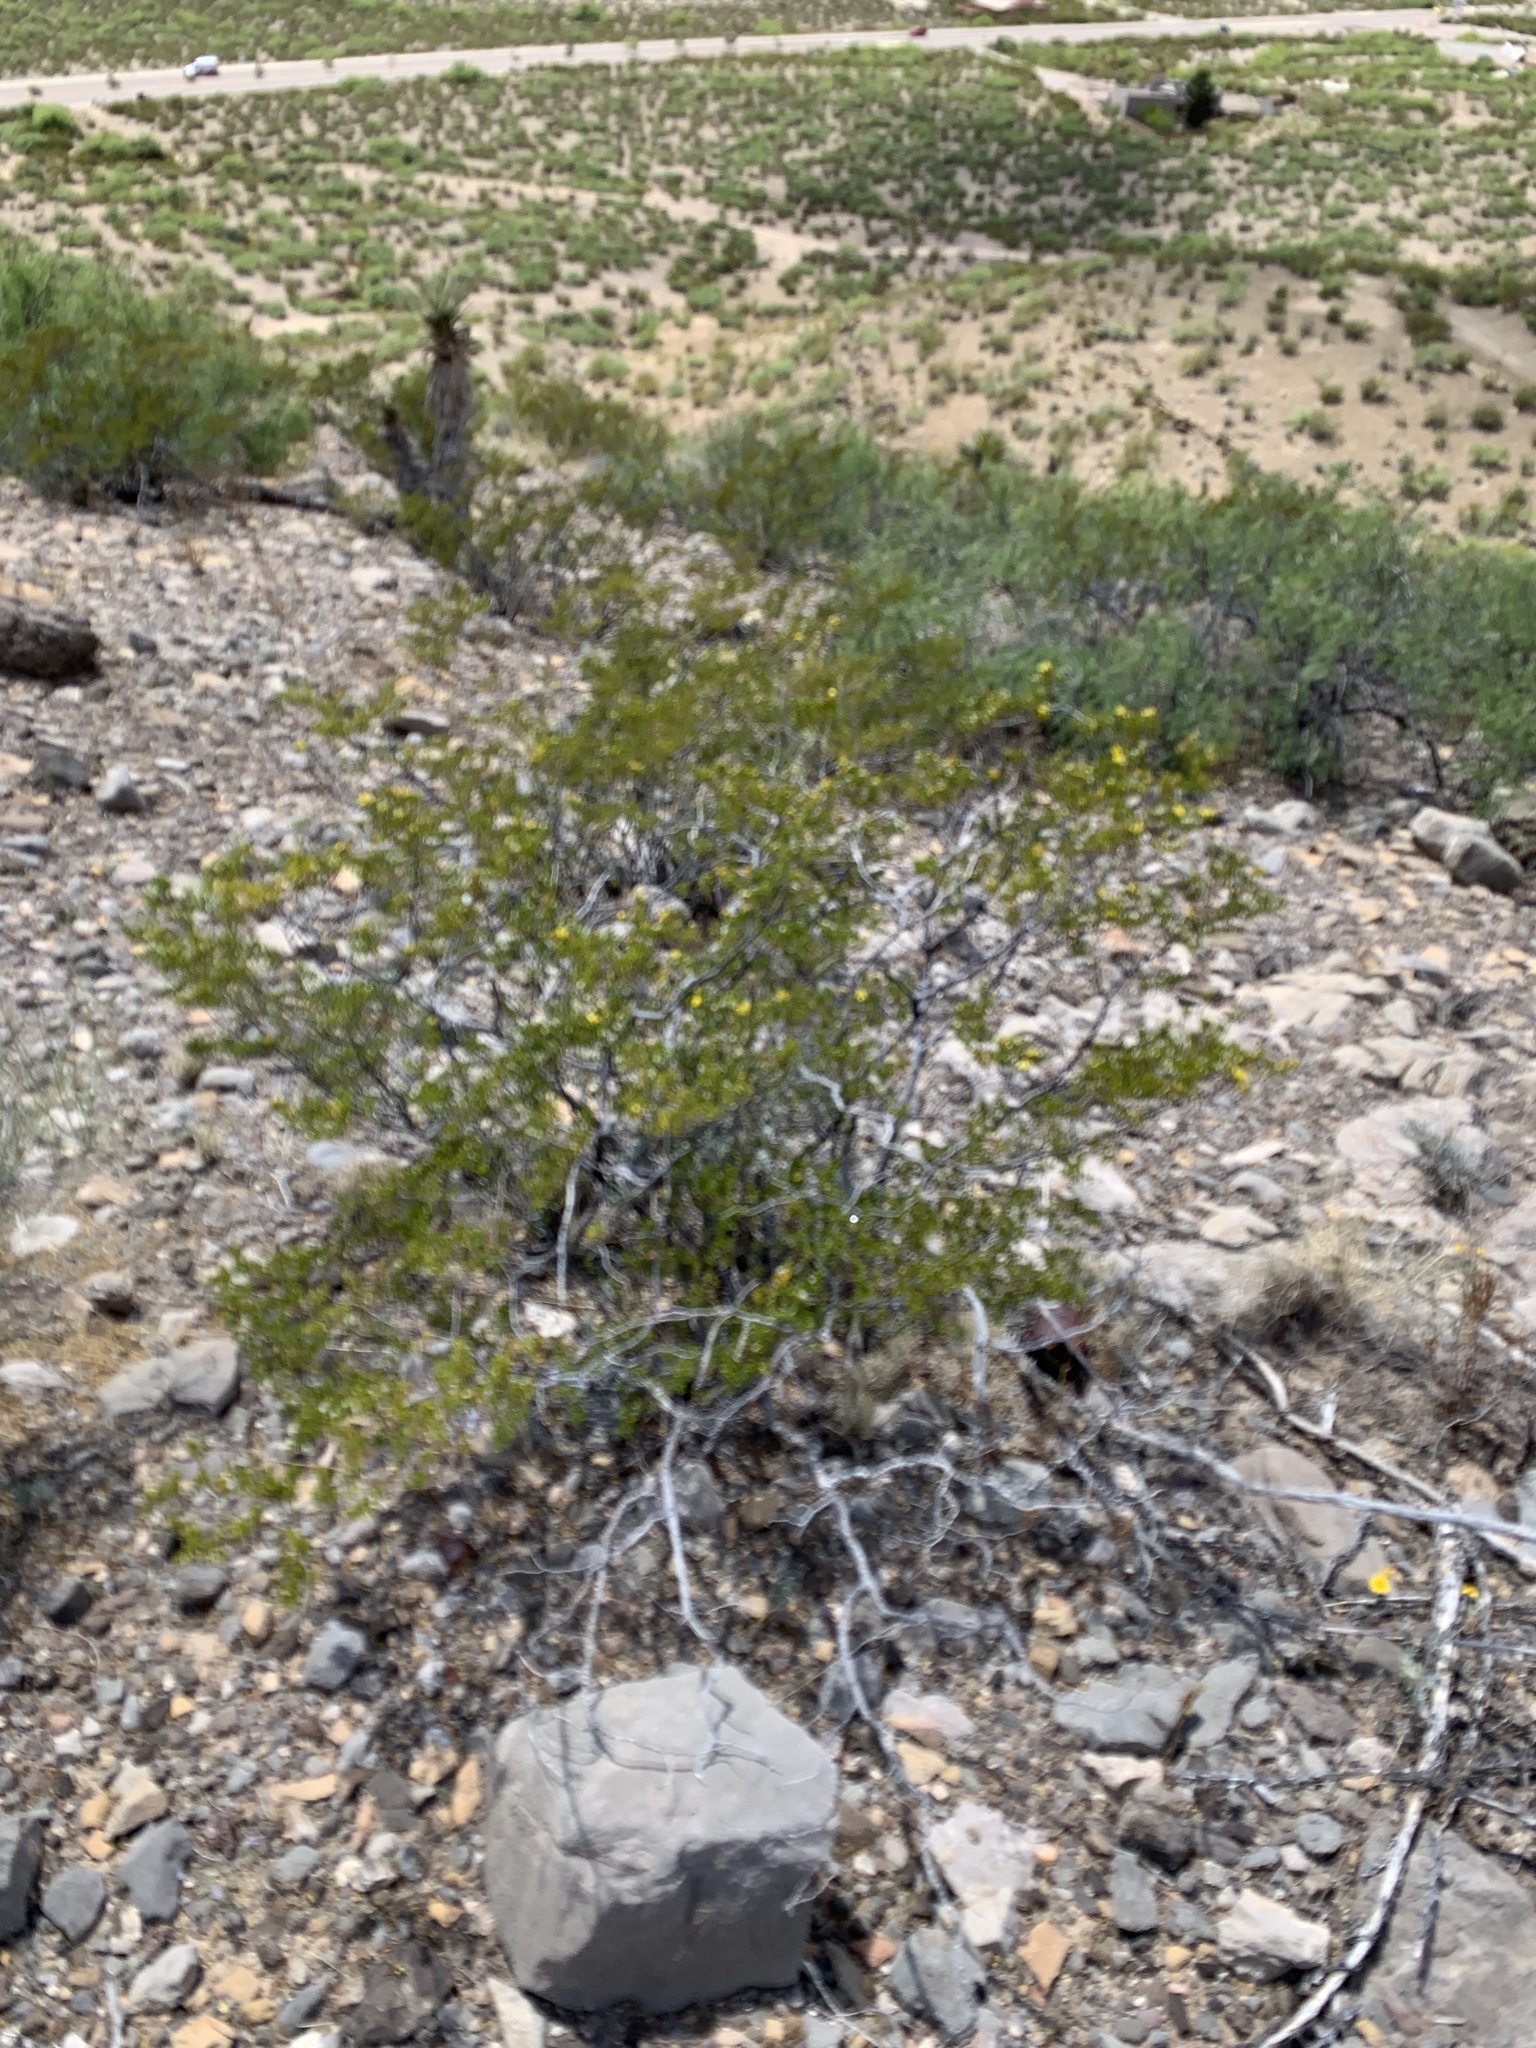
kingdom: Plantae
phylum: Tracheophyta
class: Magnoliopsida
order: Zygophyllales
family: Zygophyllaceae
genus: Larrea
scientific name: Larrea tridentata
